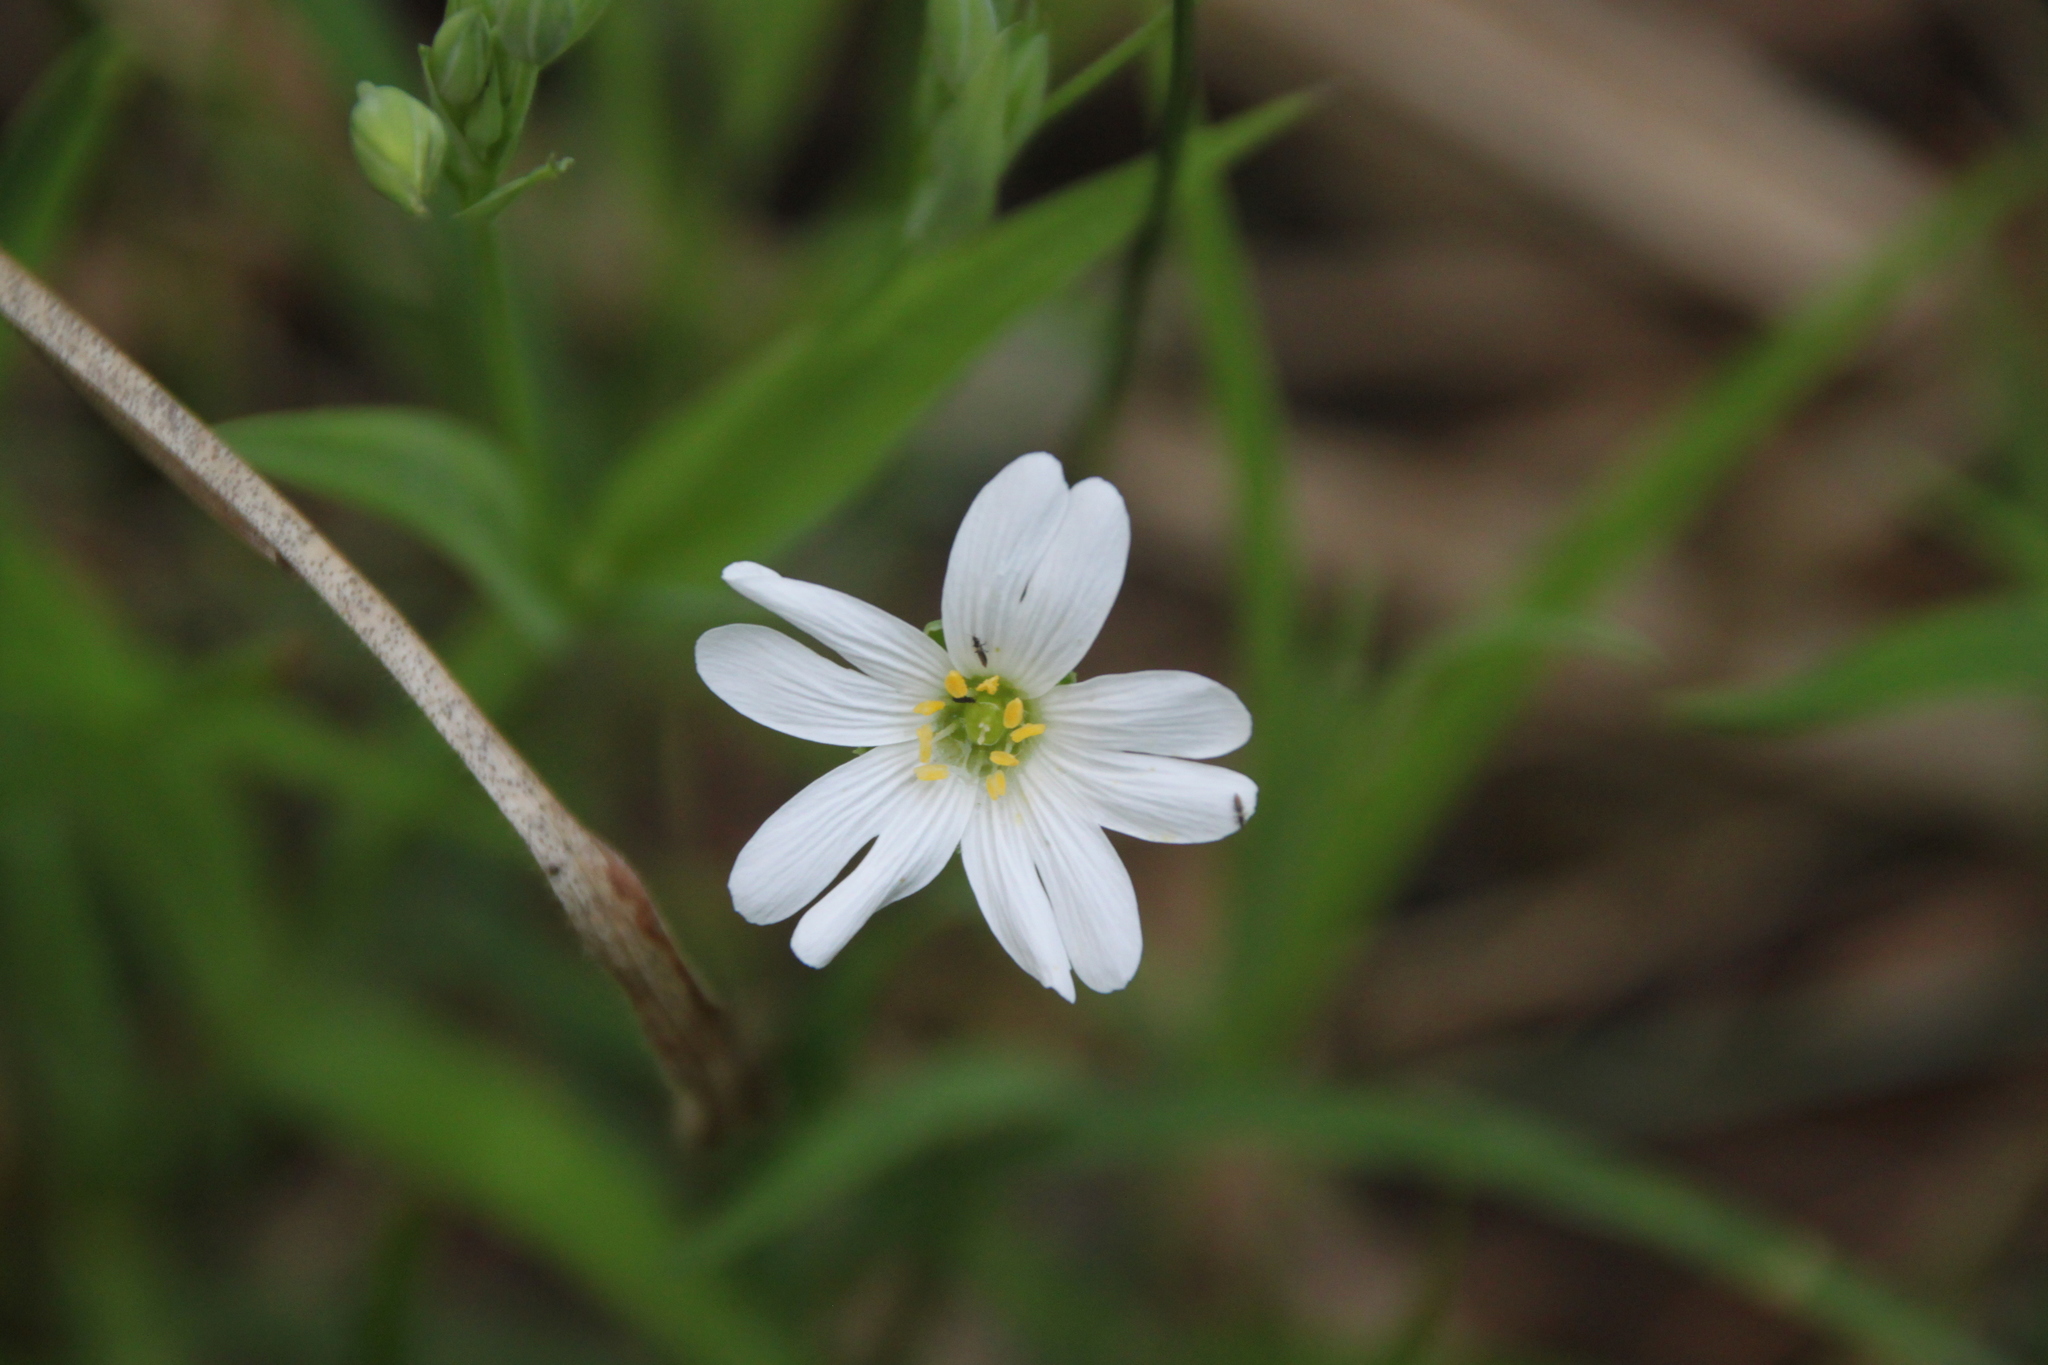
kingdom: Plantae
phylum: Tracheophyta
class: Magnoliopsida
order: Caryophyllales
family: Caryophyllaceae
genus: Rabelera
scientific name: Rabelera holostea
